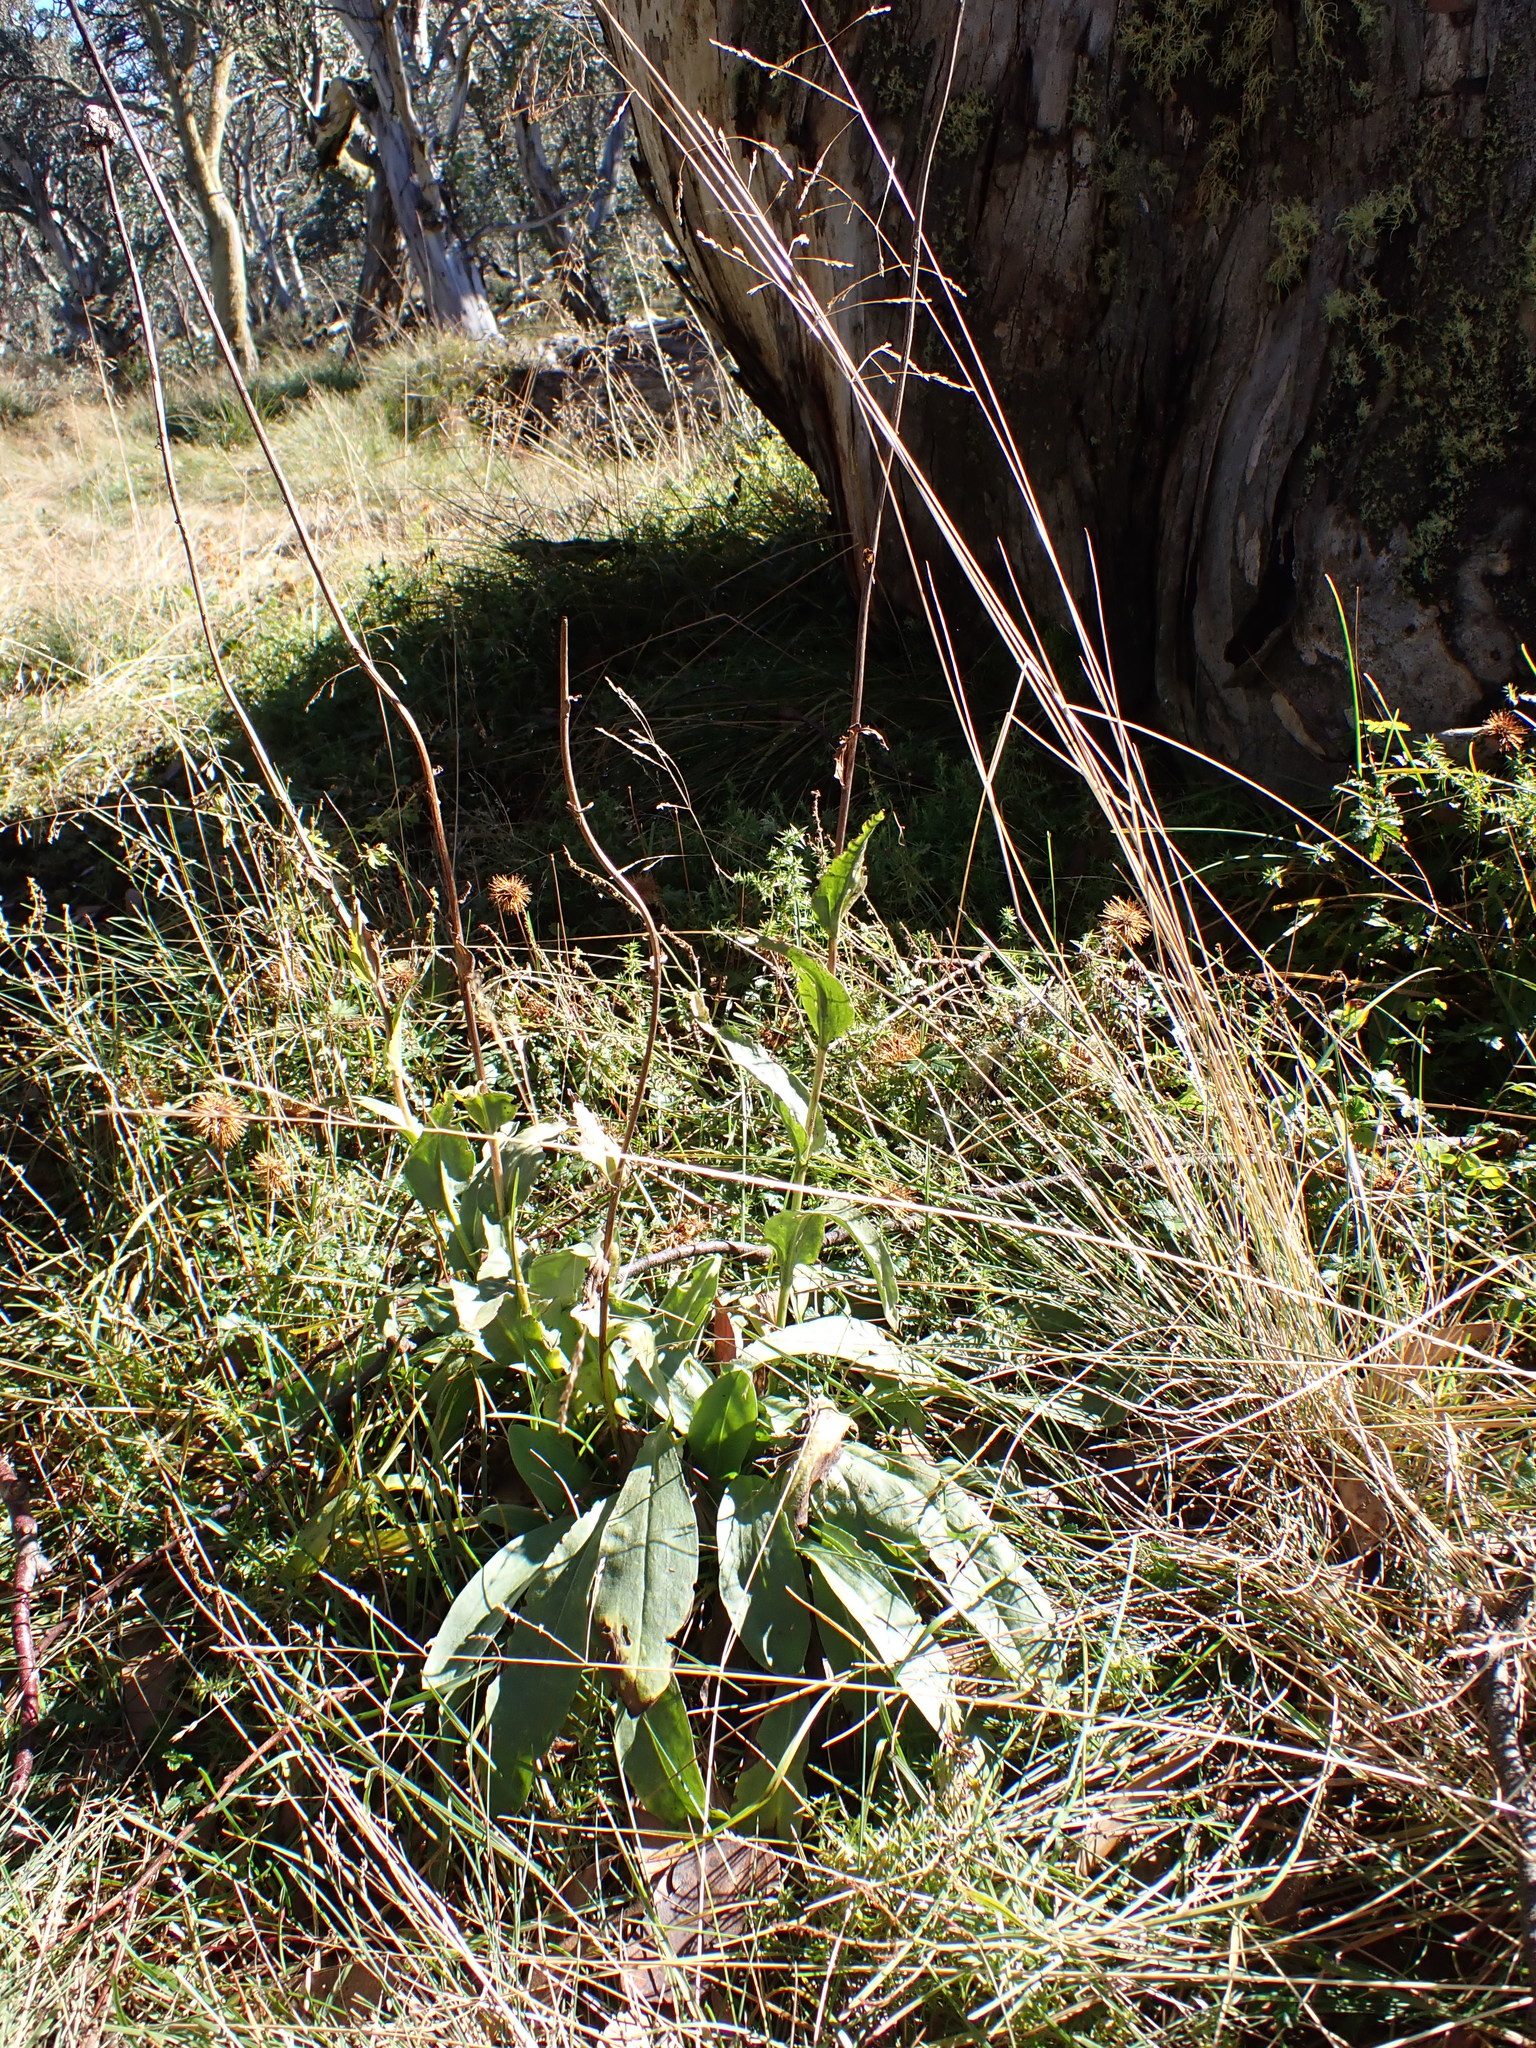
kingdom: Plantae
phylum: Tracheophyta
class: Magnoliopsida
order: Asterales
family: Asteraceae
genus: Craspedia
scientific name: Craspedia sylvestris
